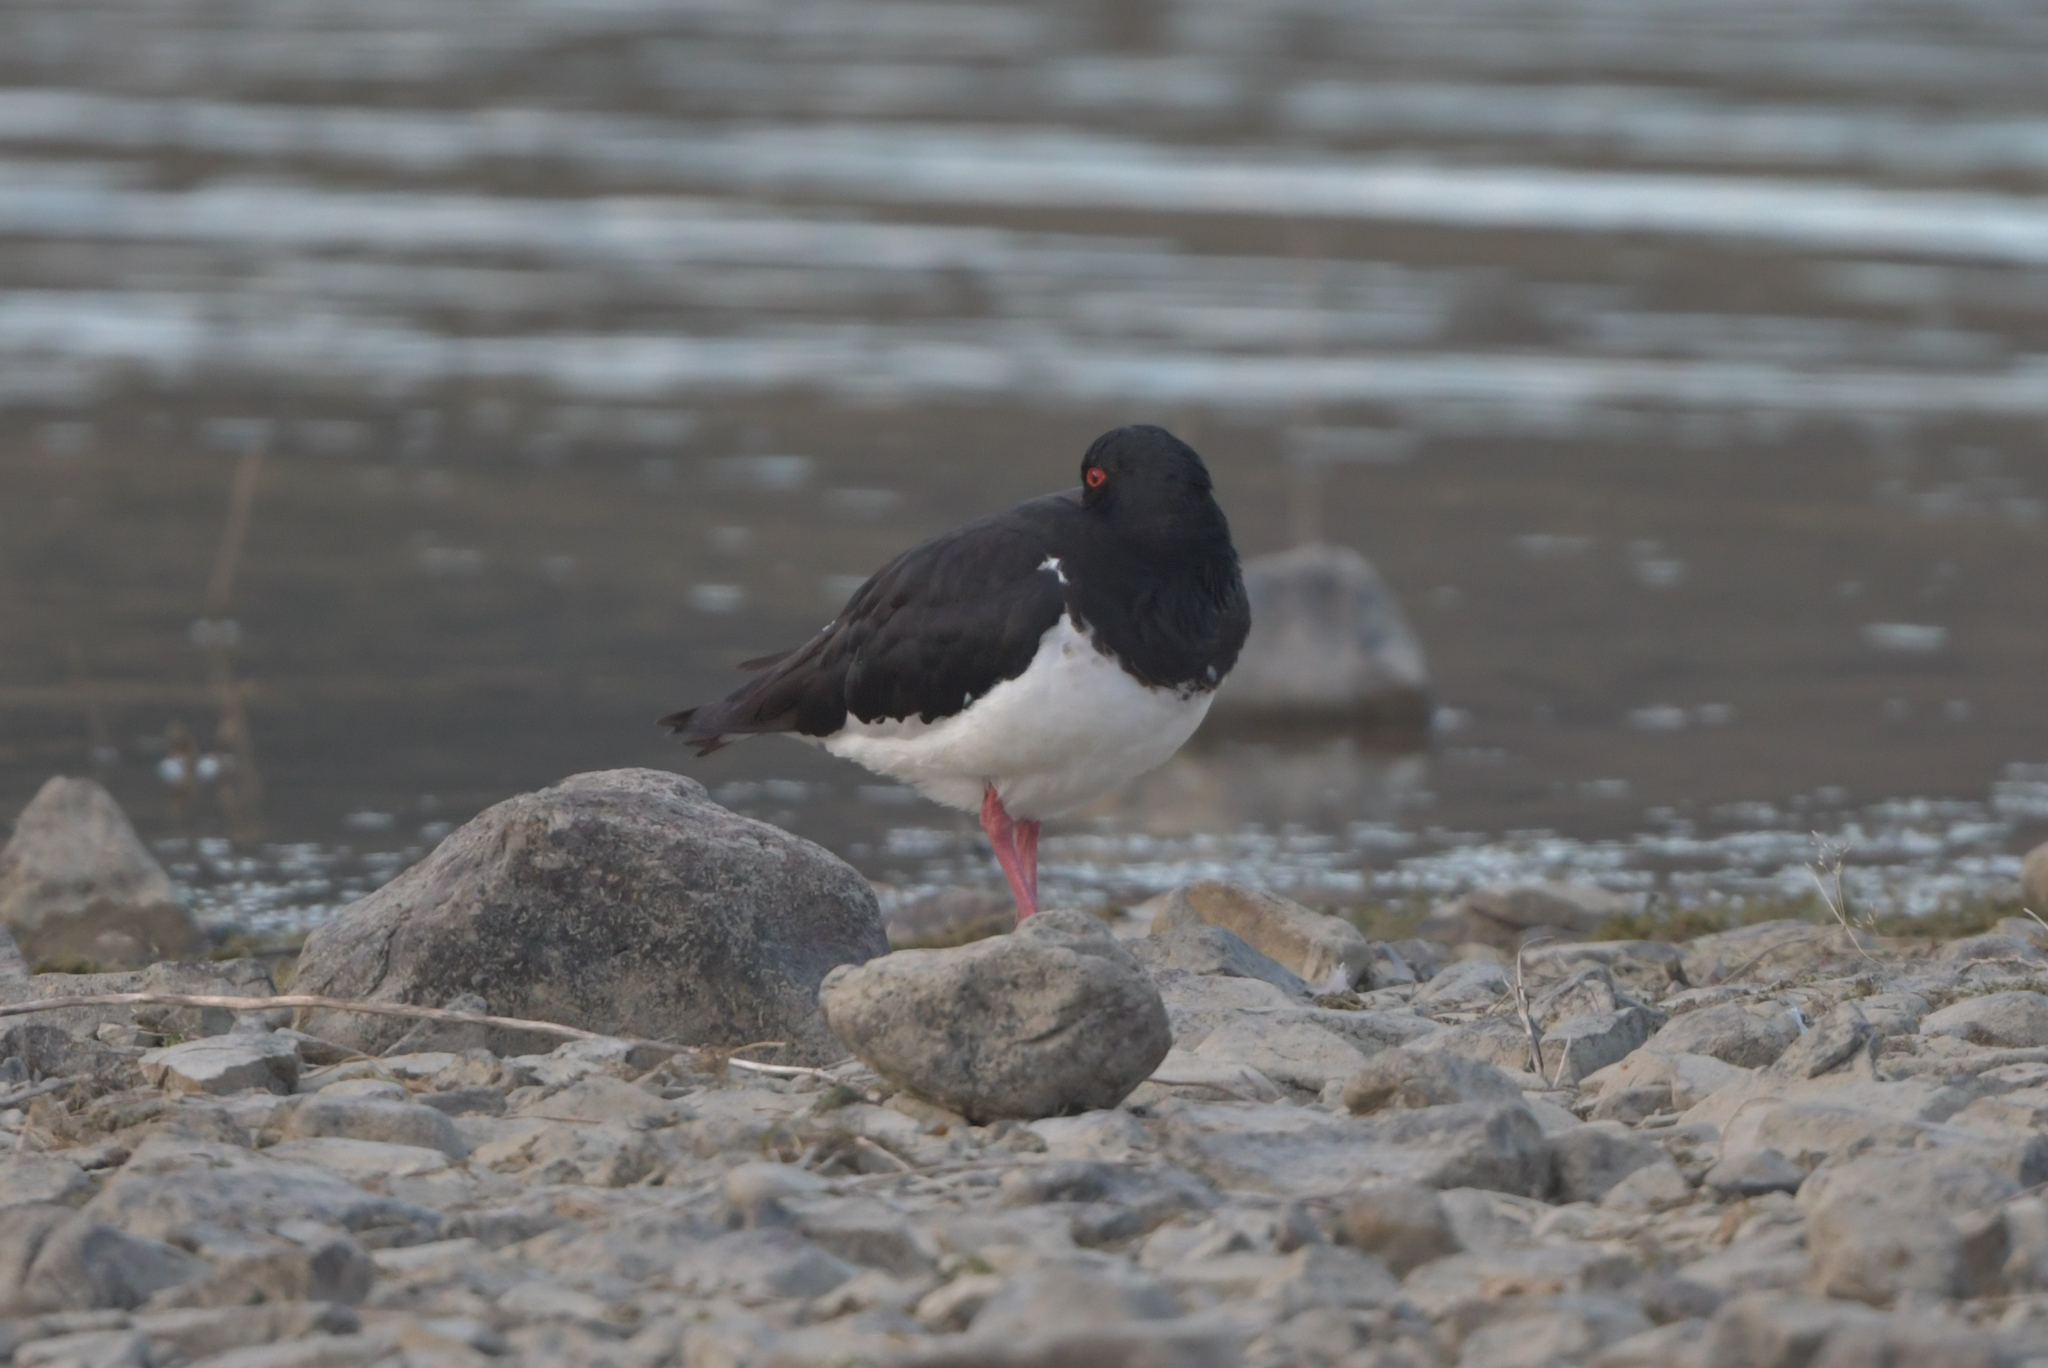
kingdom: Animalia
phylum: Chordata
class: Aves
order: Charadriiformes
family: Haematopodidae
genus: Haematopus
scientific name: Haematopus finschi
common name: South island oystercatcher
